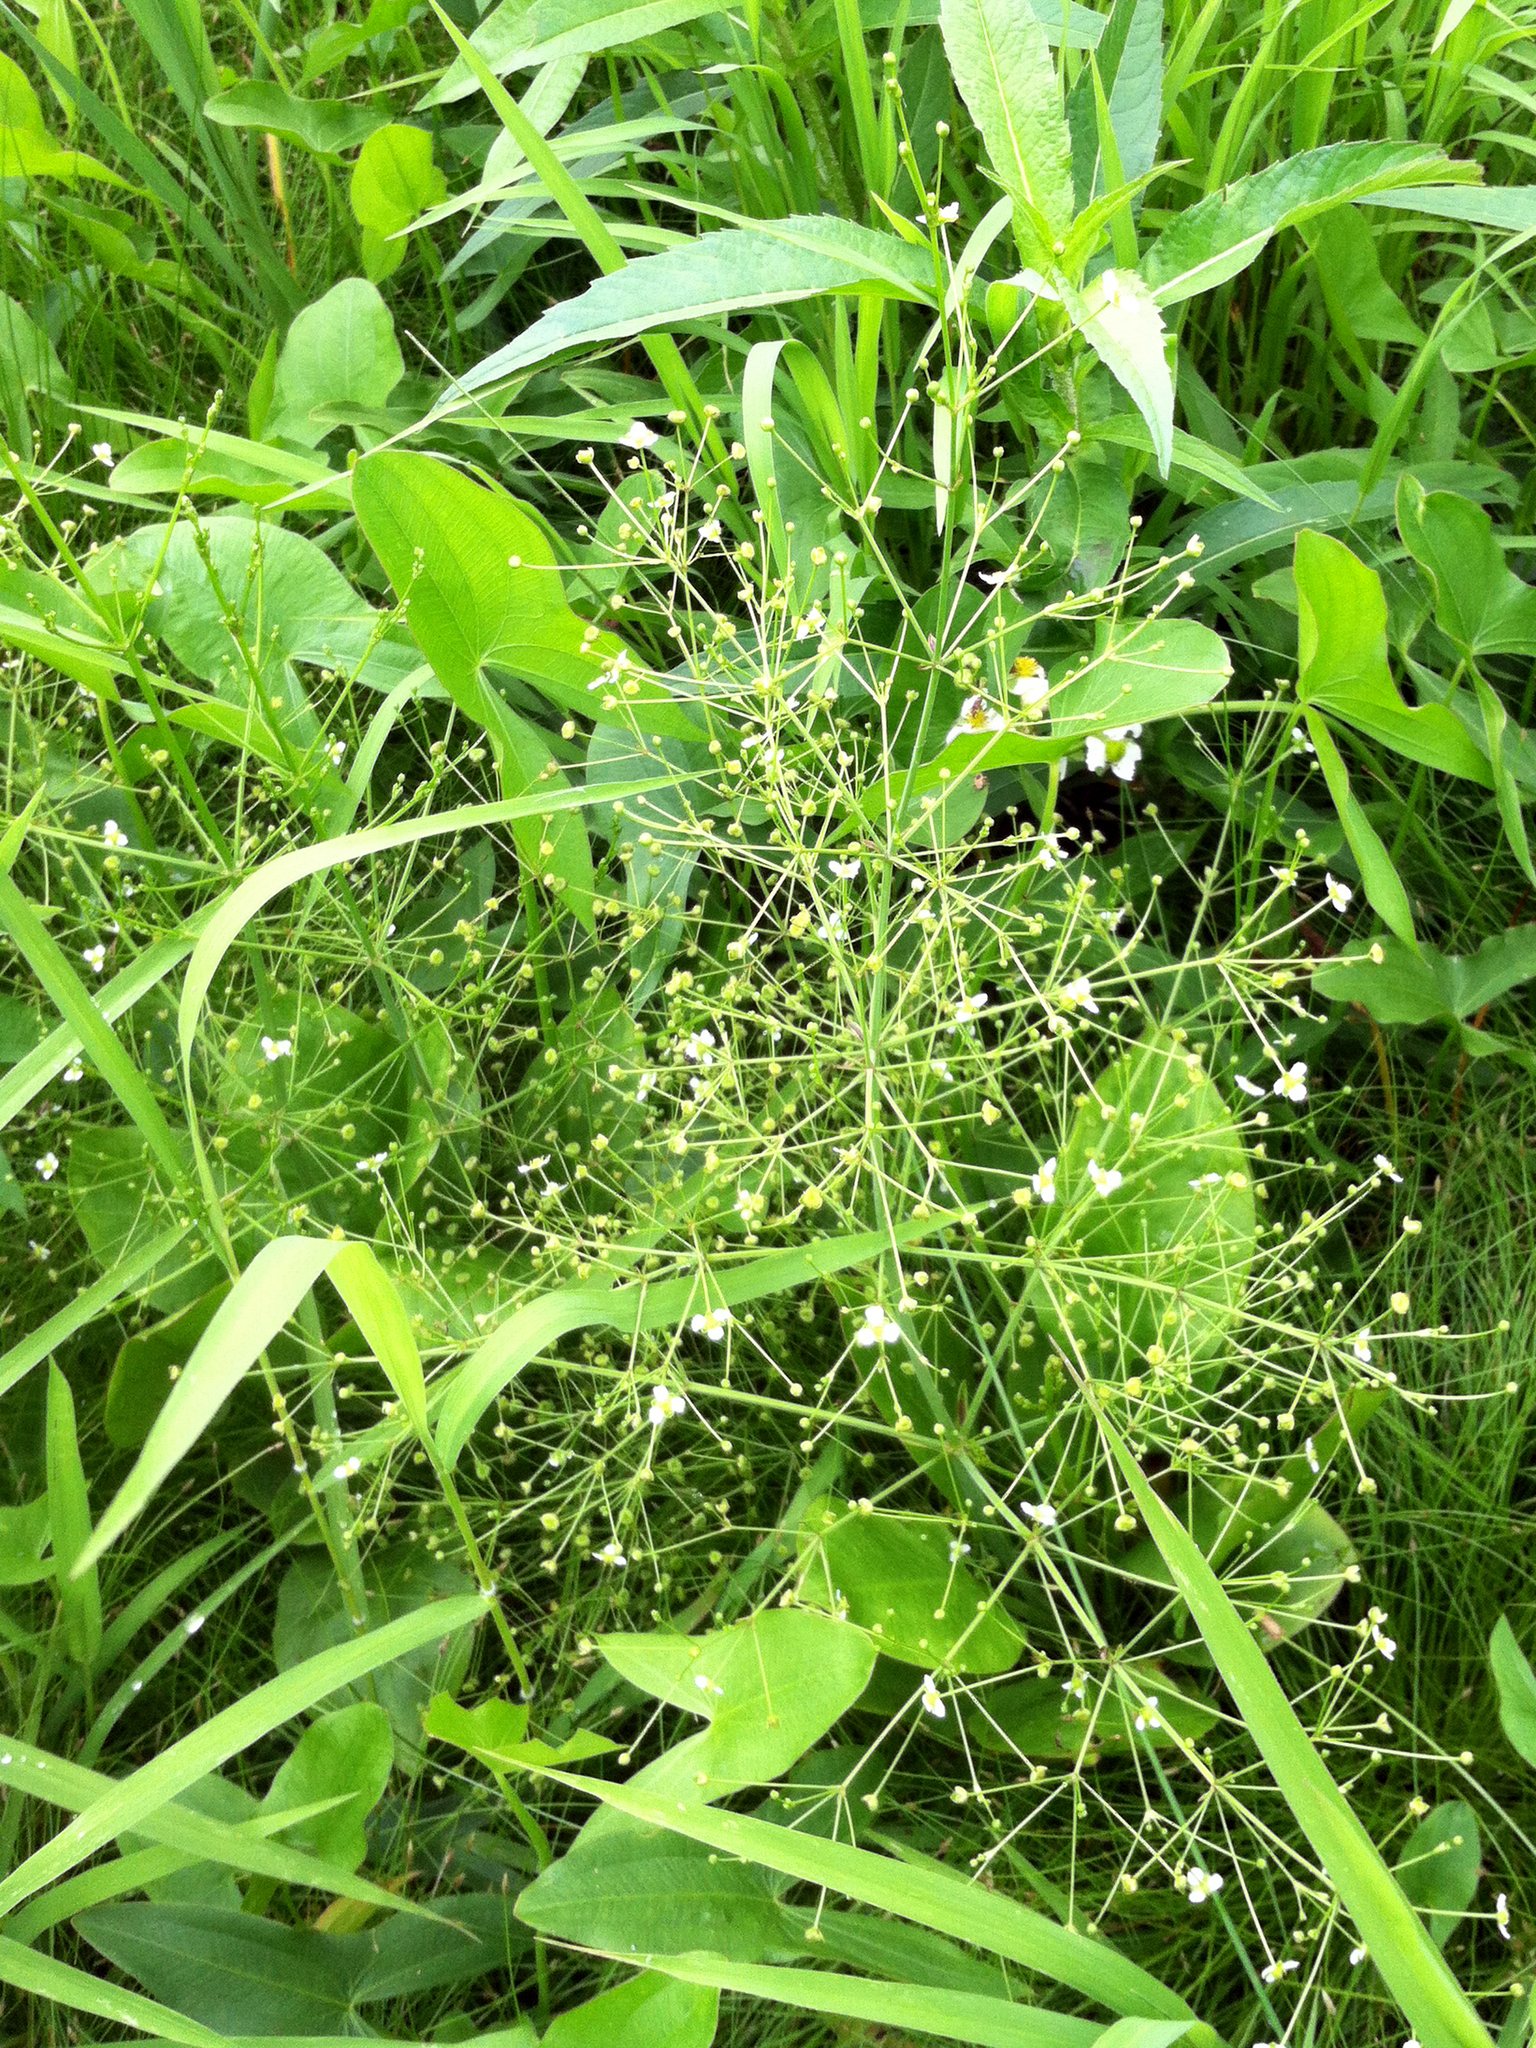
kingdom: Plantae
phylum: Tracheophyta
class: Liliopsida
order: Alismatales
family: Alismataceae
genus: Alisma
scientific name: Alisma triviale
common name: Northern water-plantain
